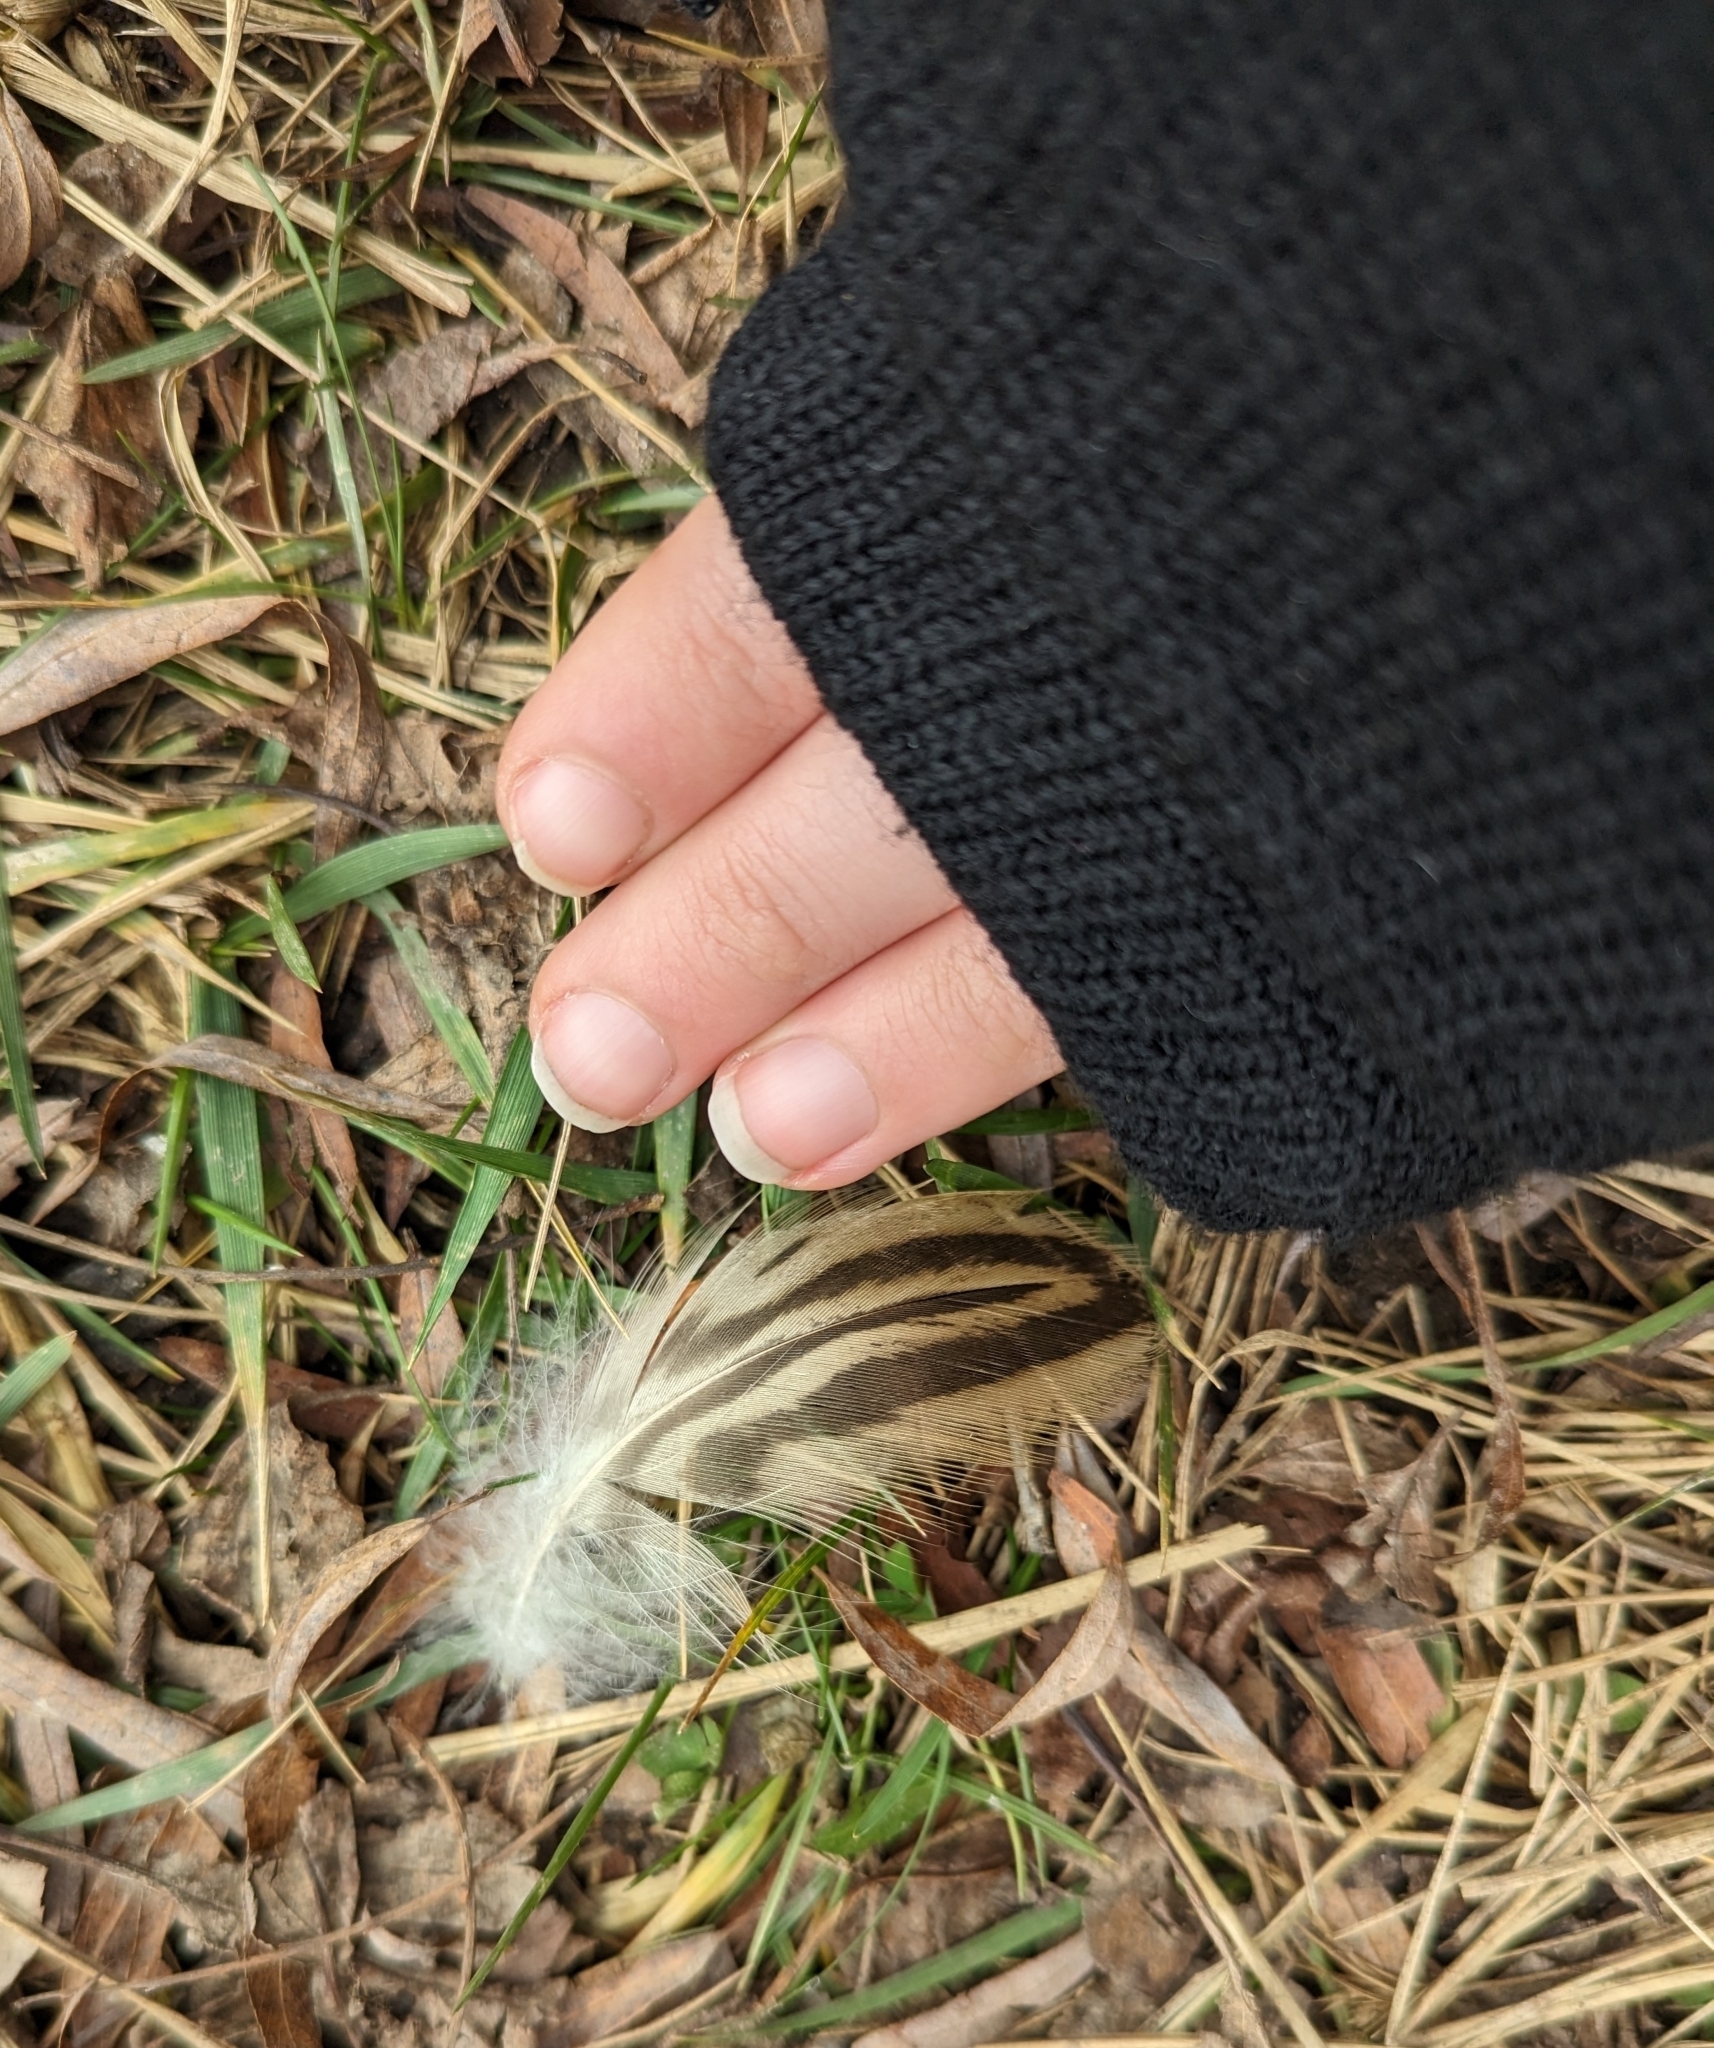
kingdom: Animalia
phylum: Chordata
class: Aves
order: Anseriformes
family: Anatidae
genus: Anas
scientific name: Anas platyrhynchos
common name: Mallard
